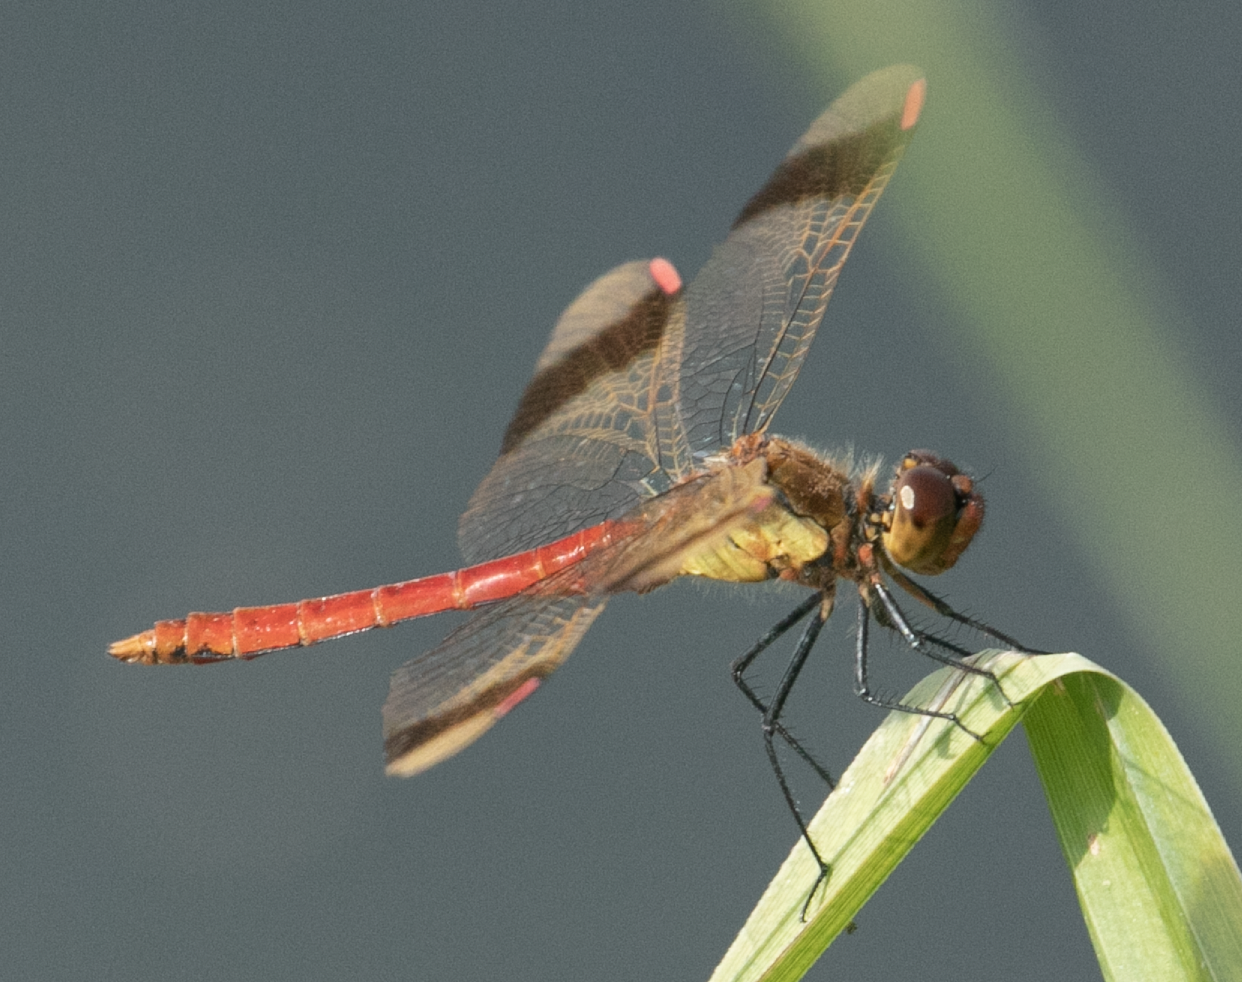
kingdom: Animalia
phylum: Arthropoda
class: Insecta
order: Odonata
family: Libellulidae
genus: Sympetrum
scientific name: Sympetrum pedemontanum
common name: Banded darter
